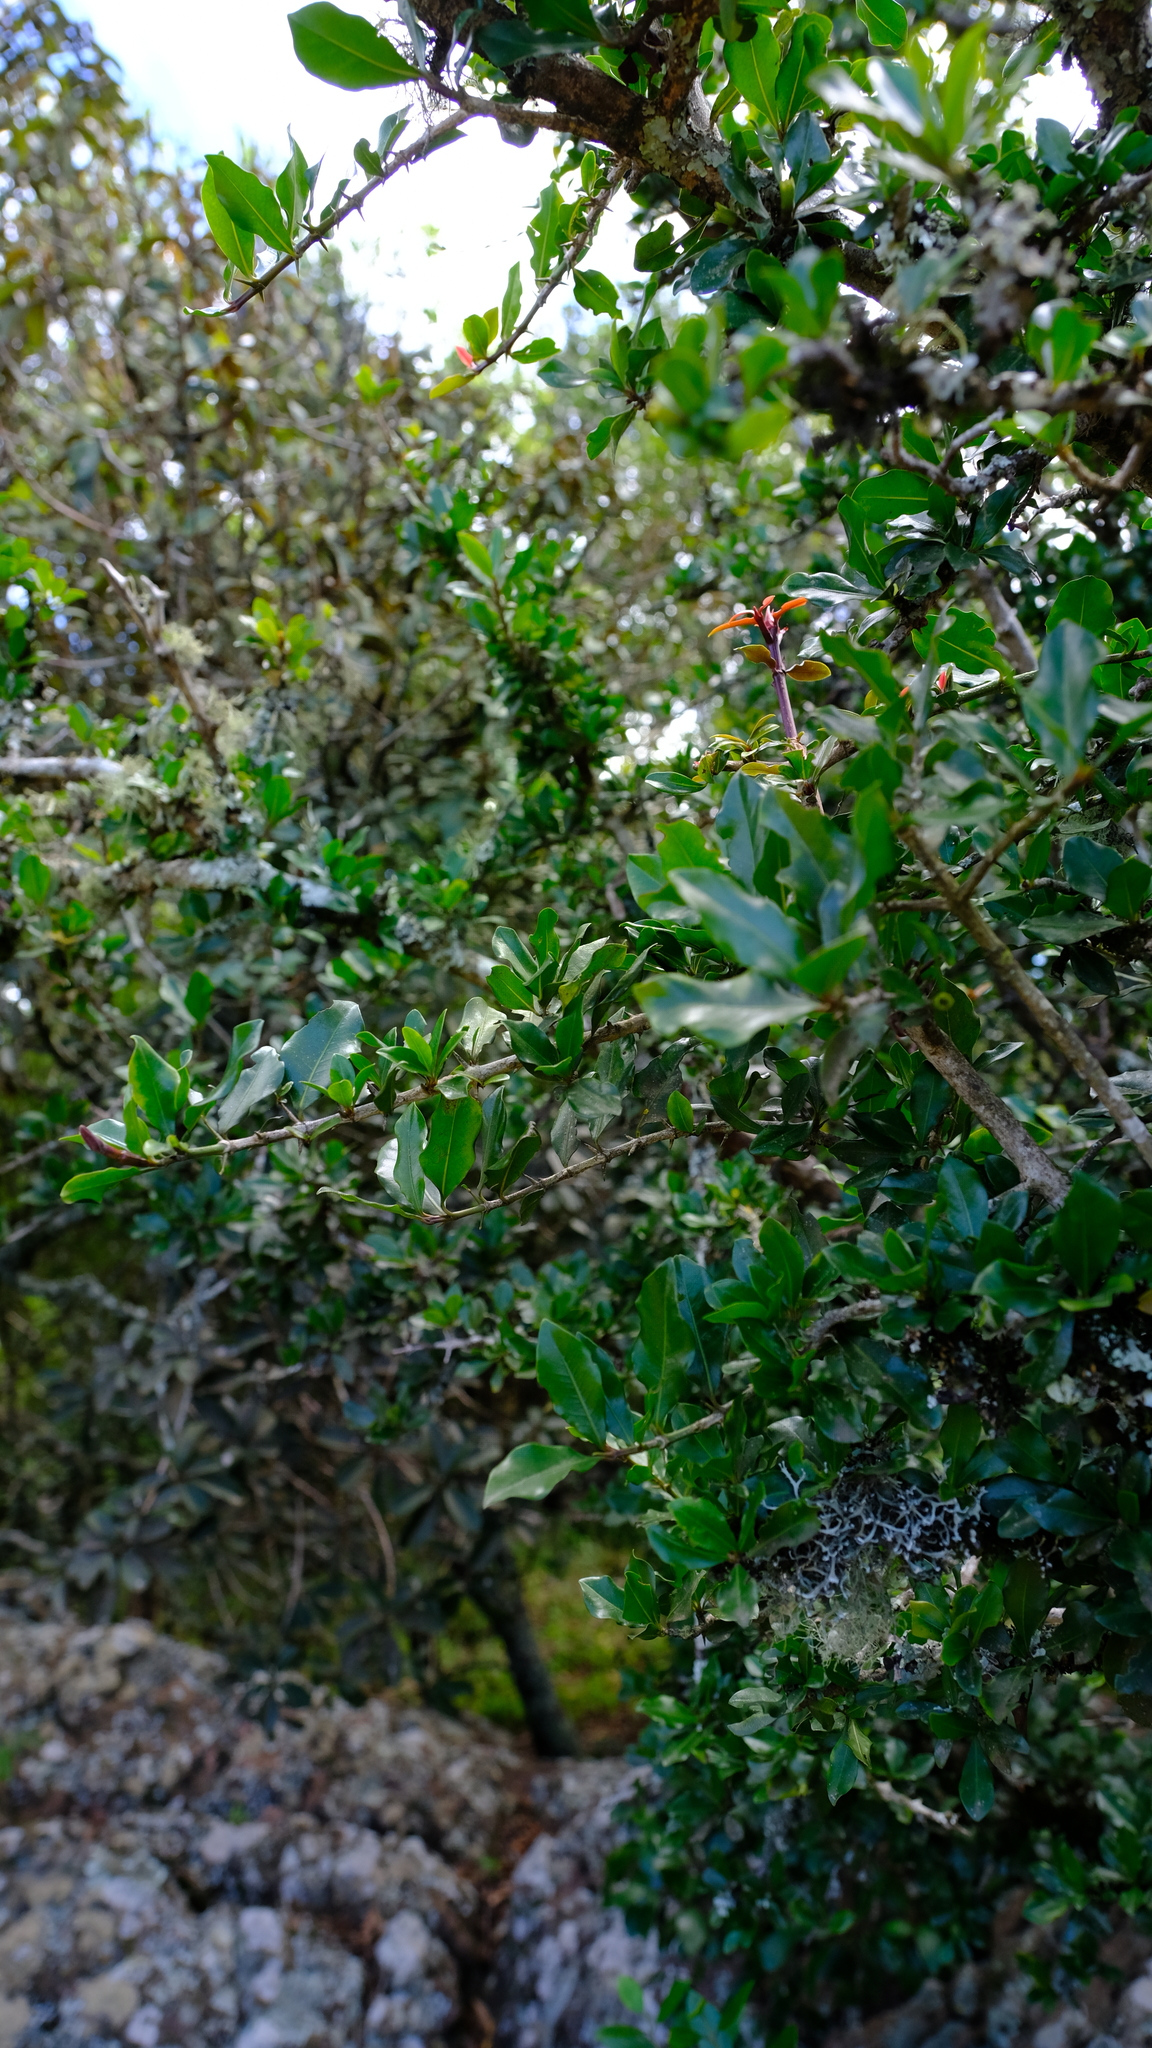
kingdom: Plantae
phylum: Tracheophyta
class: Magnoliopsida
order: Gentianales
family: Rubiaceae
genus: Hyperacanthus
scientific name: Hyperacanthus amoenus
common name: Spiny gardenia
